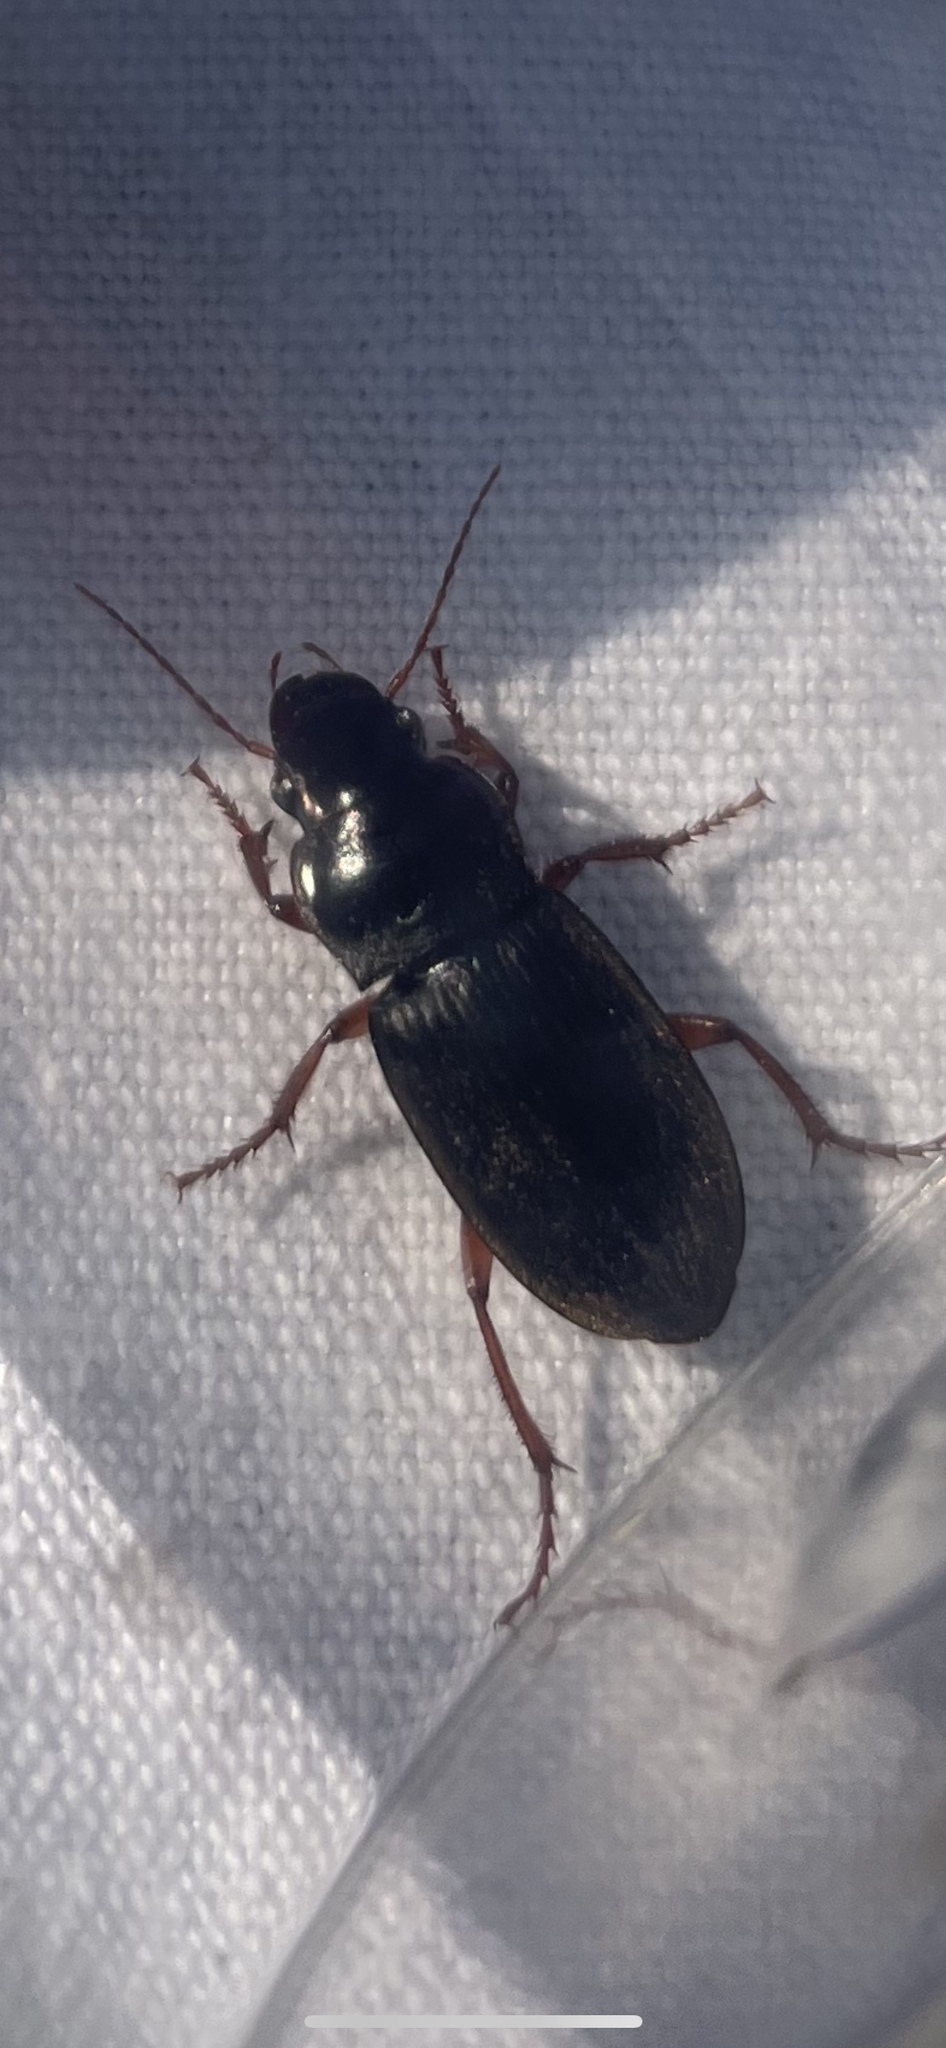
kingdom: Animalia
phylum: Arthropoda
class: Insecta
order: Coleoptera
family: Carabidae
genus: Harpalus
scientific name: Harpalus rufipes
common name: Strawberry harp ground beetle
